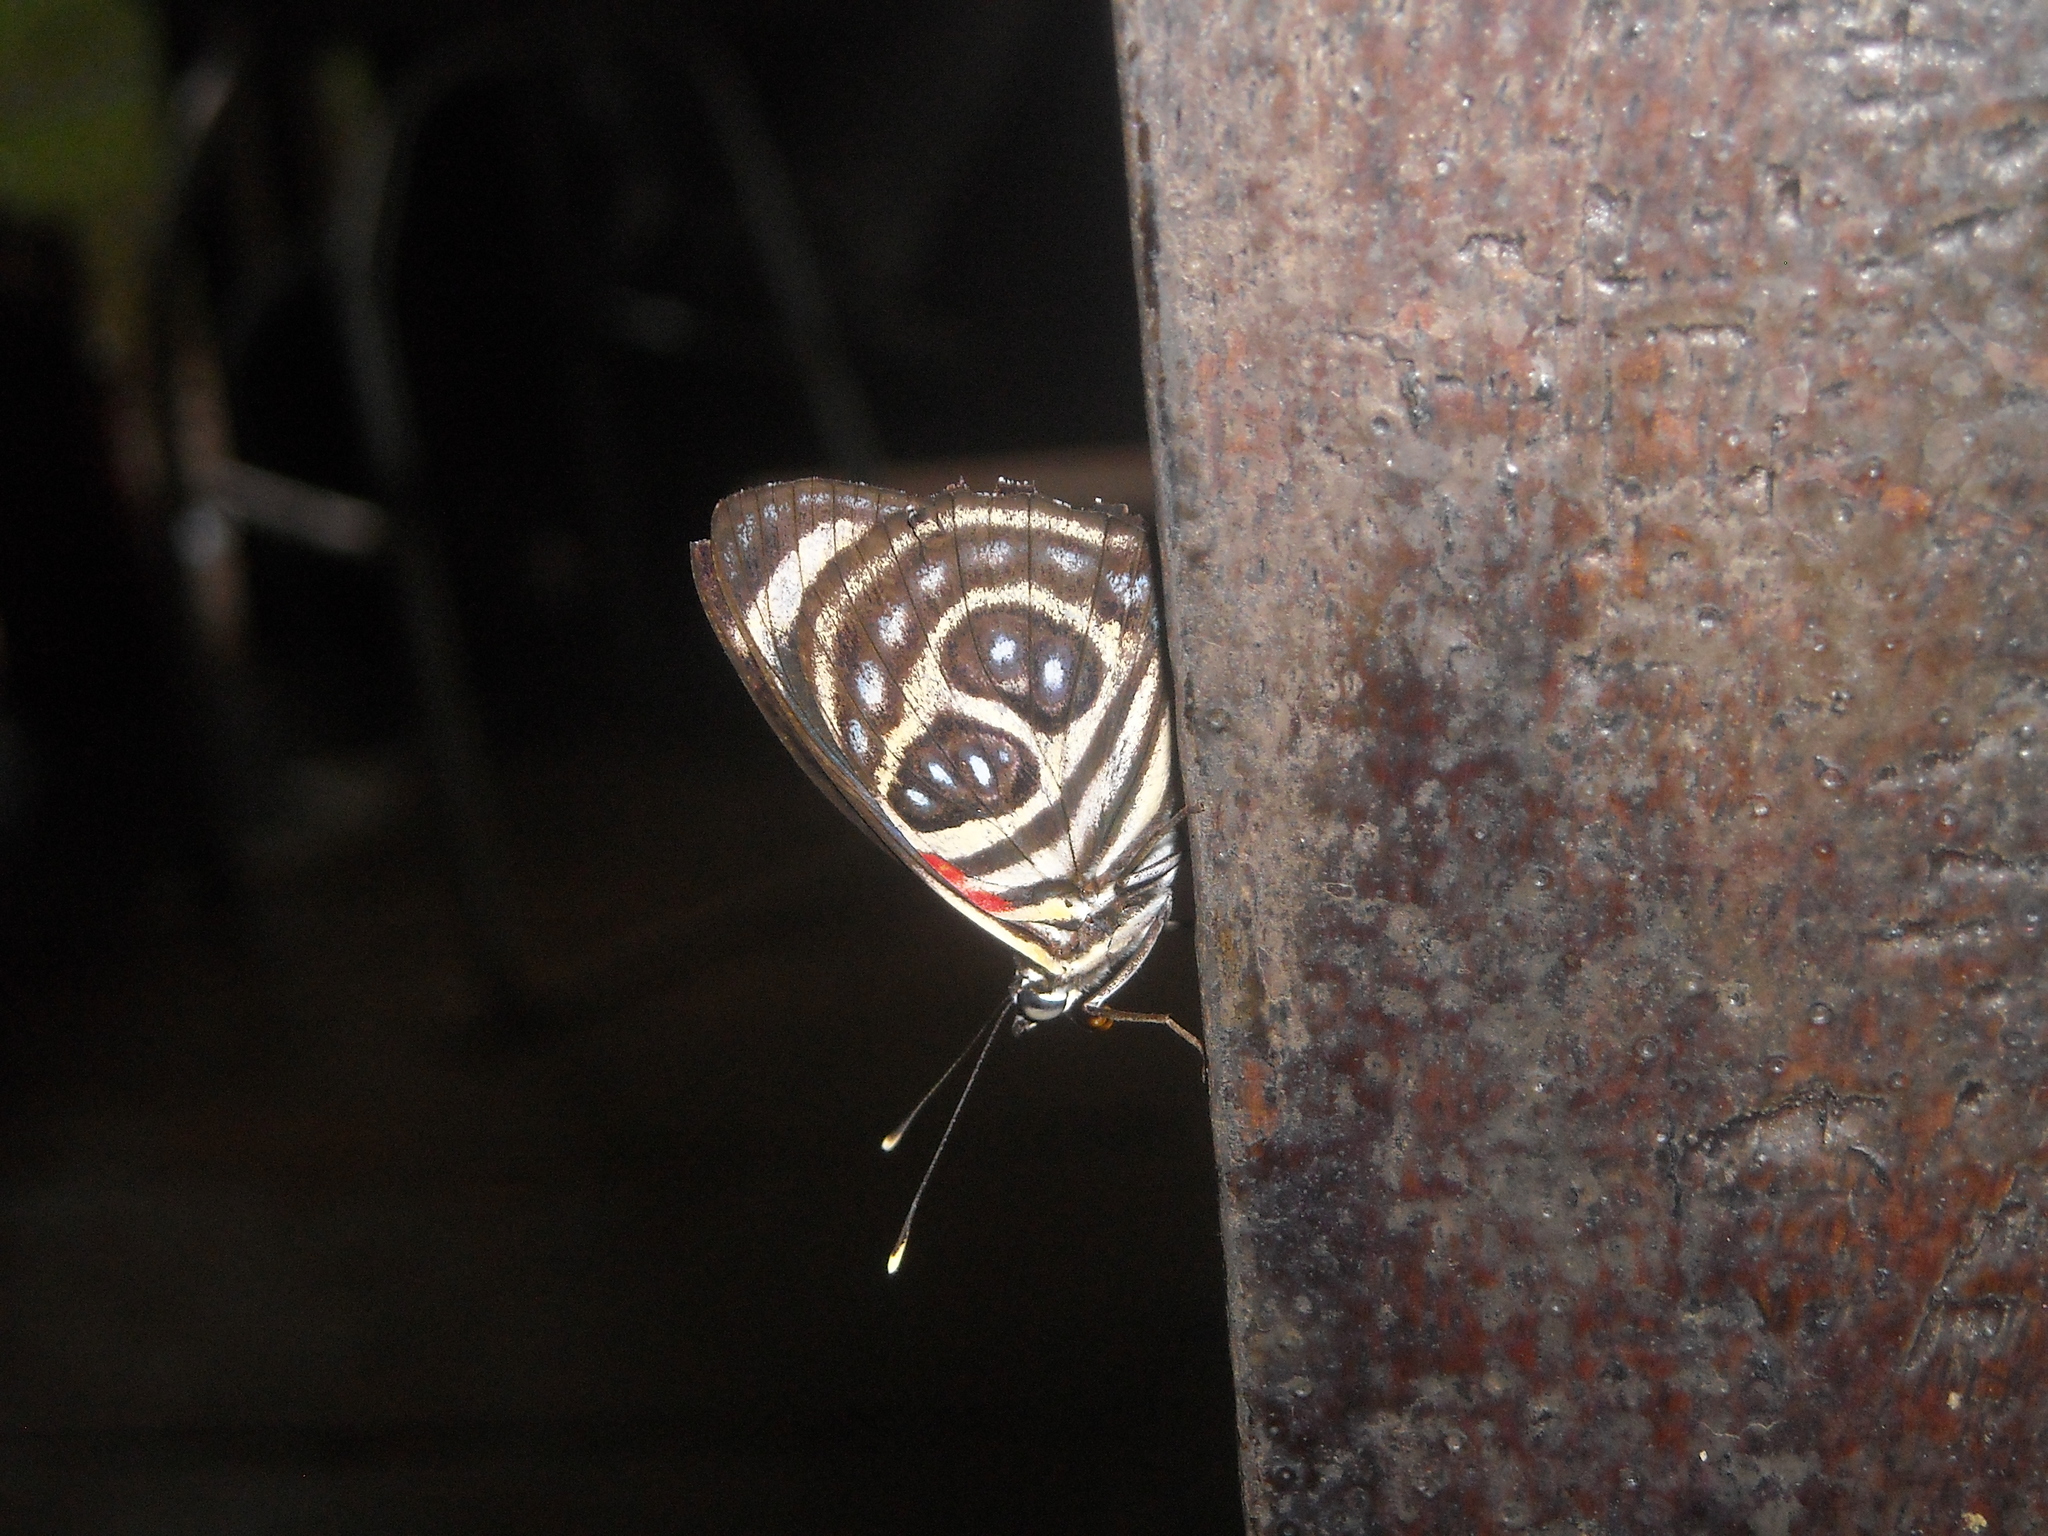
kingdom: Animalia
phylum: Arthropoda
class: Insecta
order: Lepidoptera
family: Nymphalidae
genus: Catagramma
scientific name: Catagramma pygas
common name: Godart's numberwing
